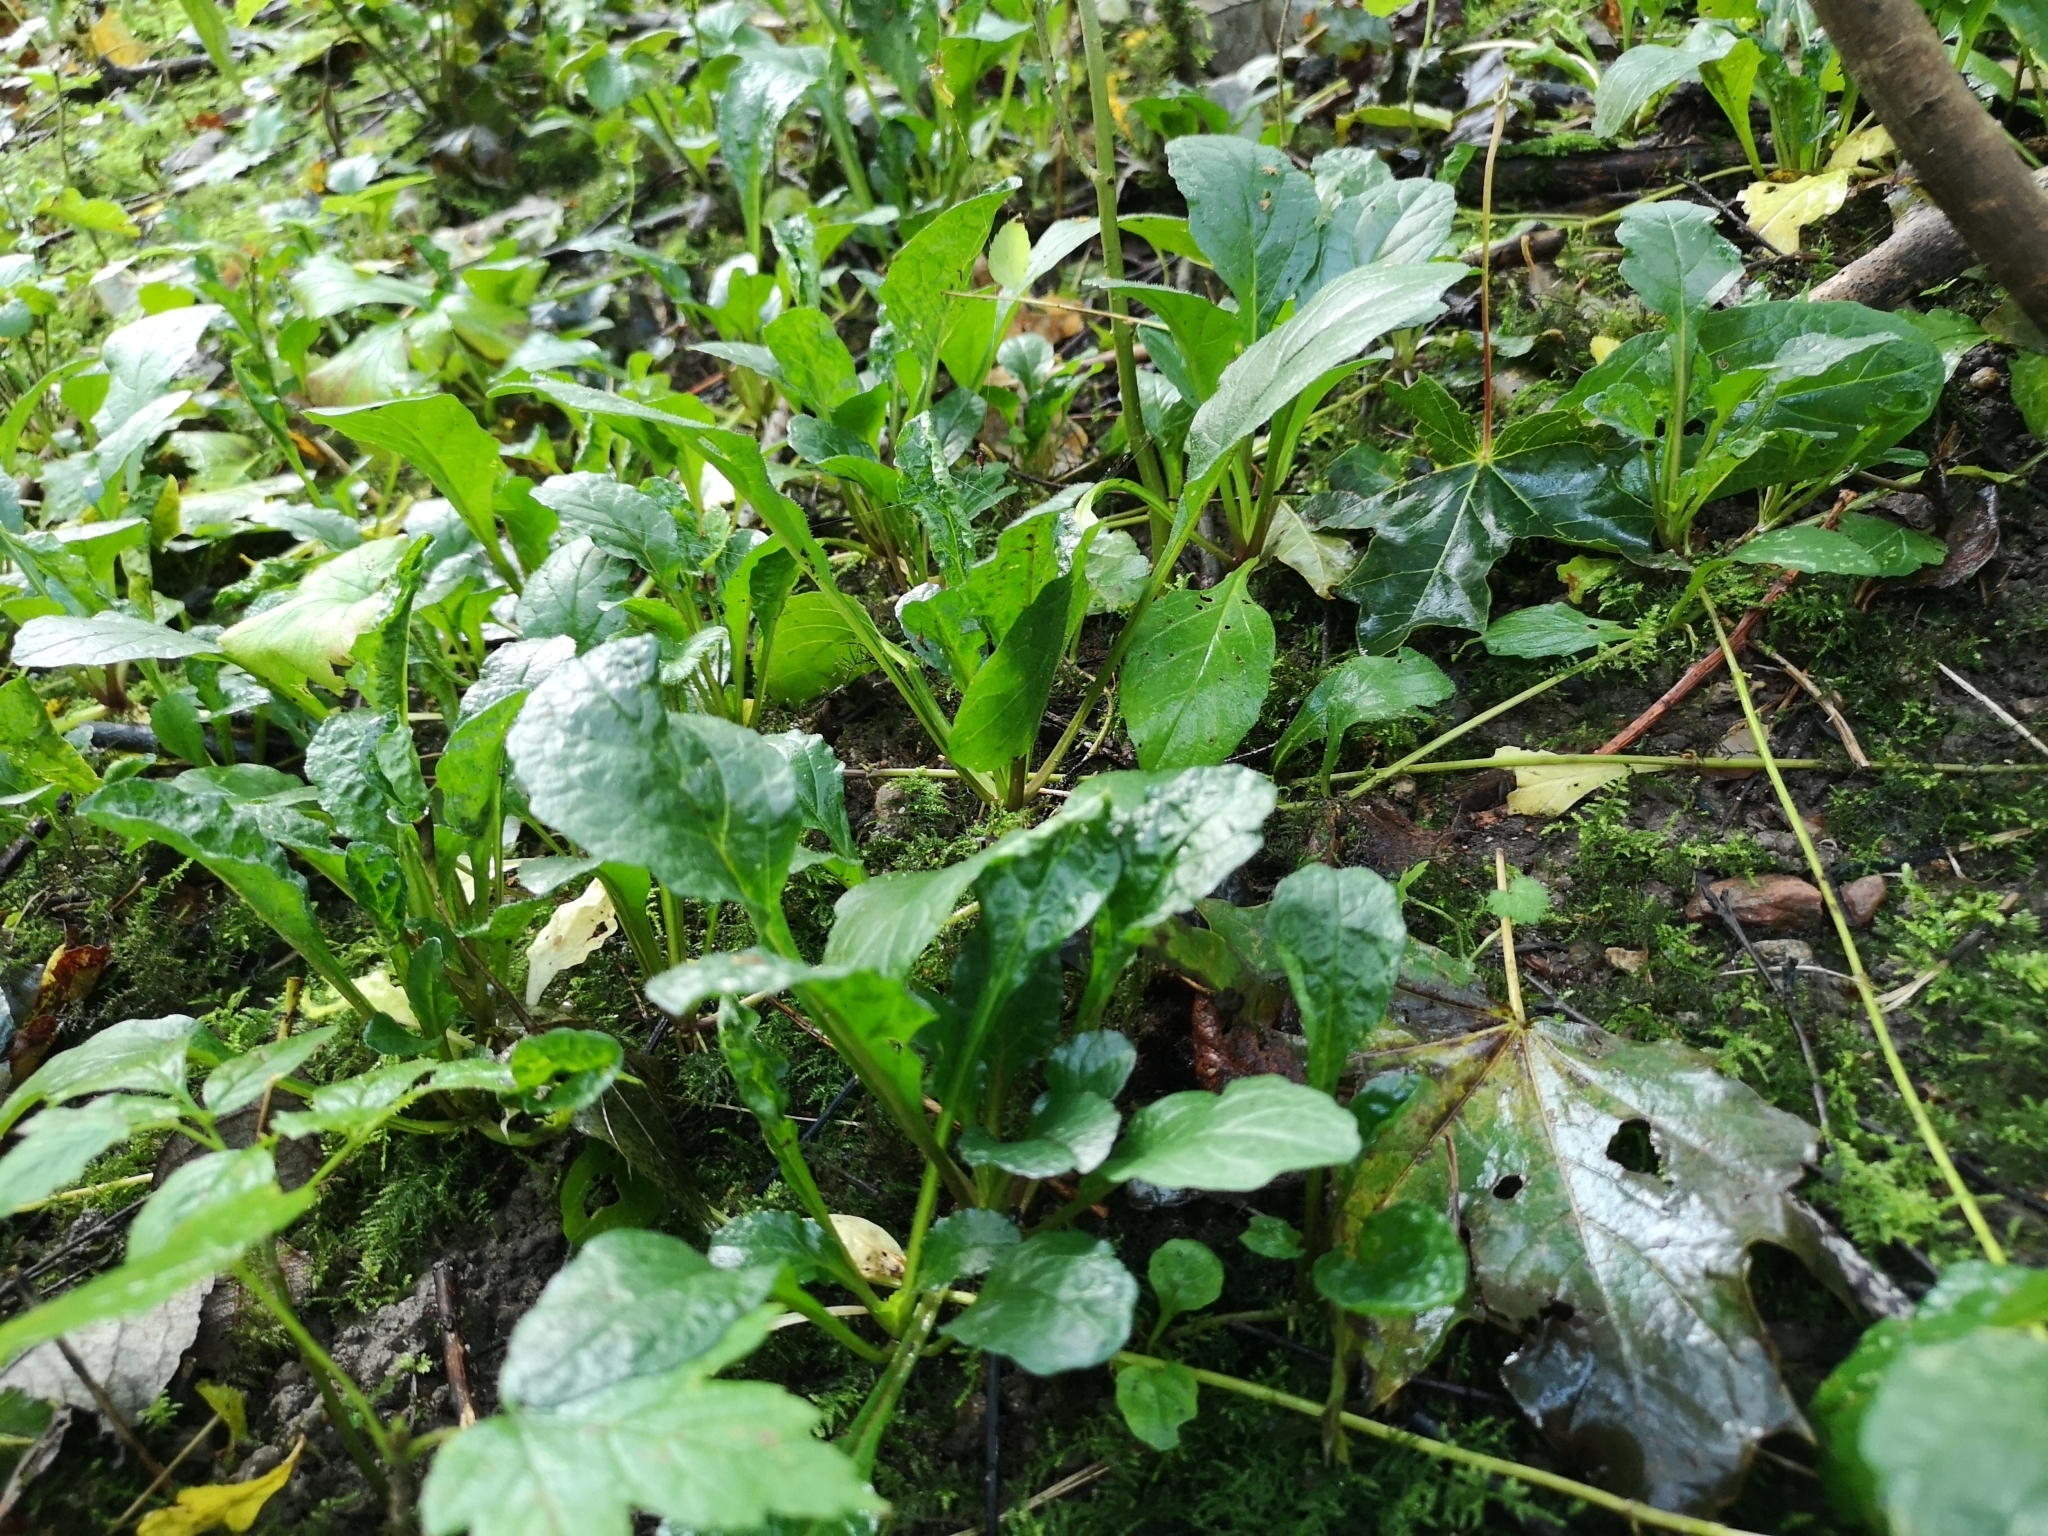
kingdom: Plantae
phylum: Tracheophyta
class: Magnoliopsida
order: Lamiales
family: Lamiaceae
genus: Ajuga
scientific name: Ajuga reptans
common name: Bugle
